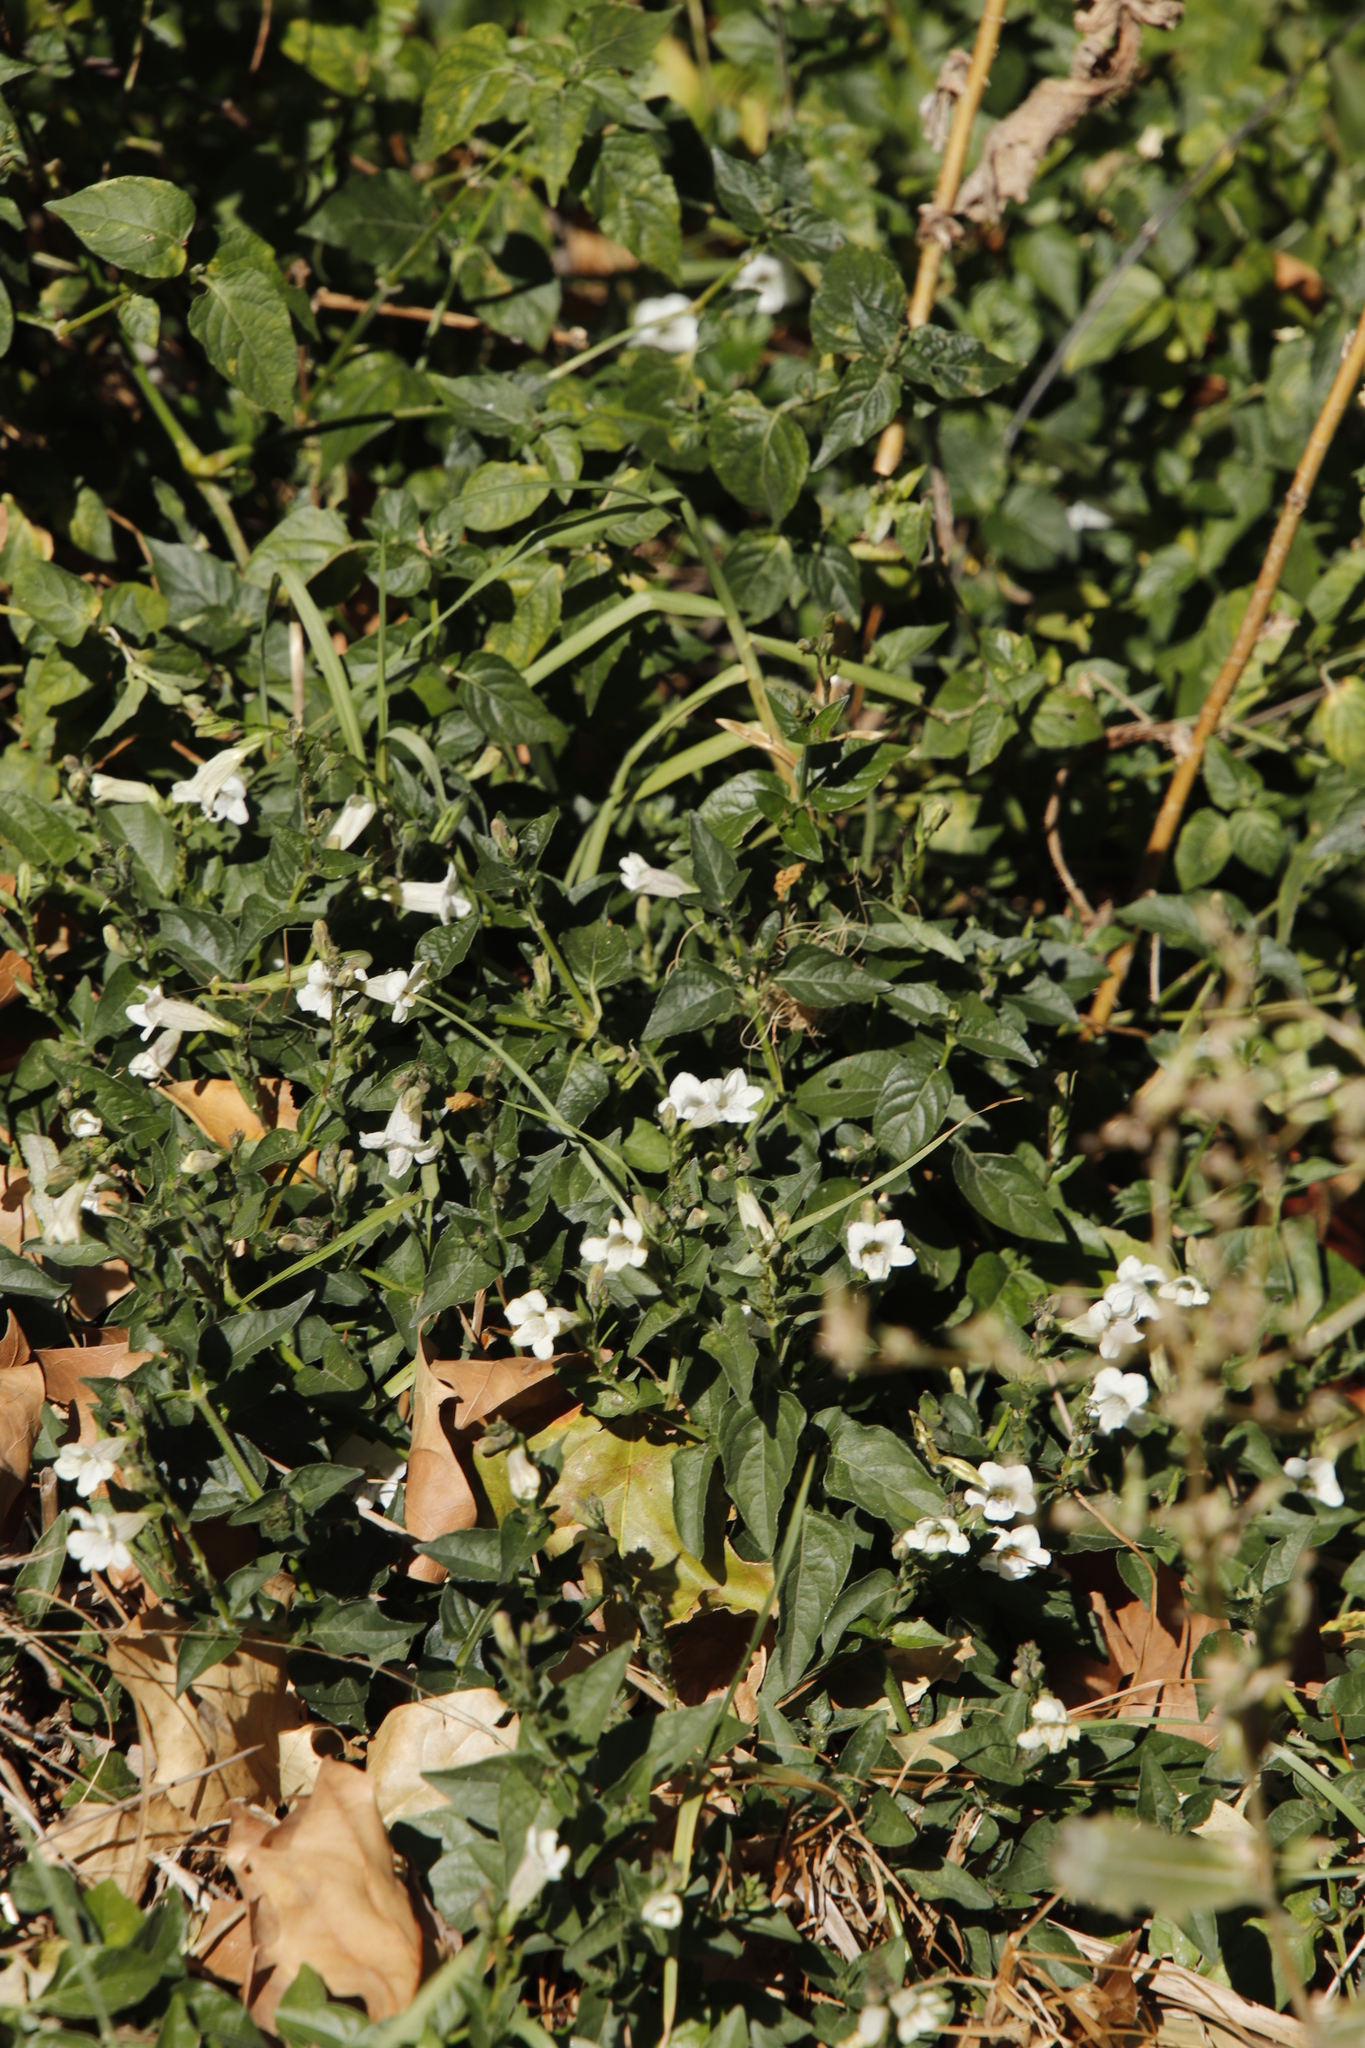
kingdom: Plantae
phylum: Tracheophyta
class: Magnoliopsida
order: Lamiales
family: Acanthaceae
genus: Asystasia
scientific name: Asystasia intrusa
